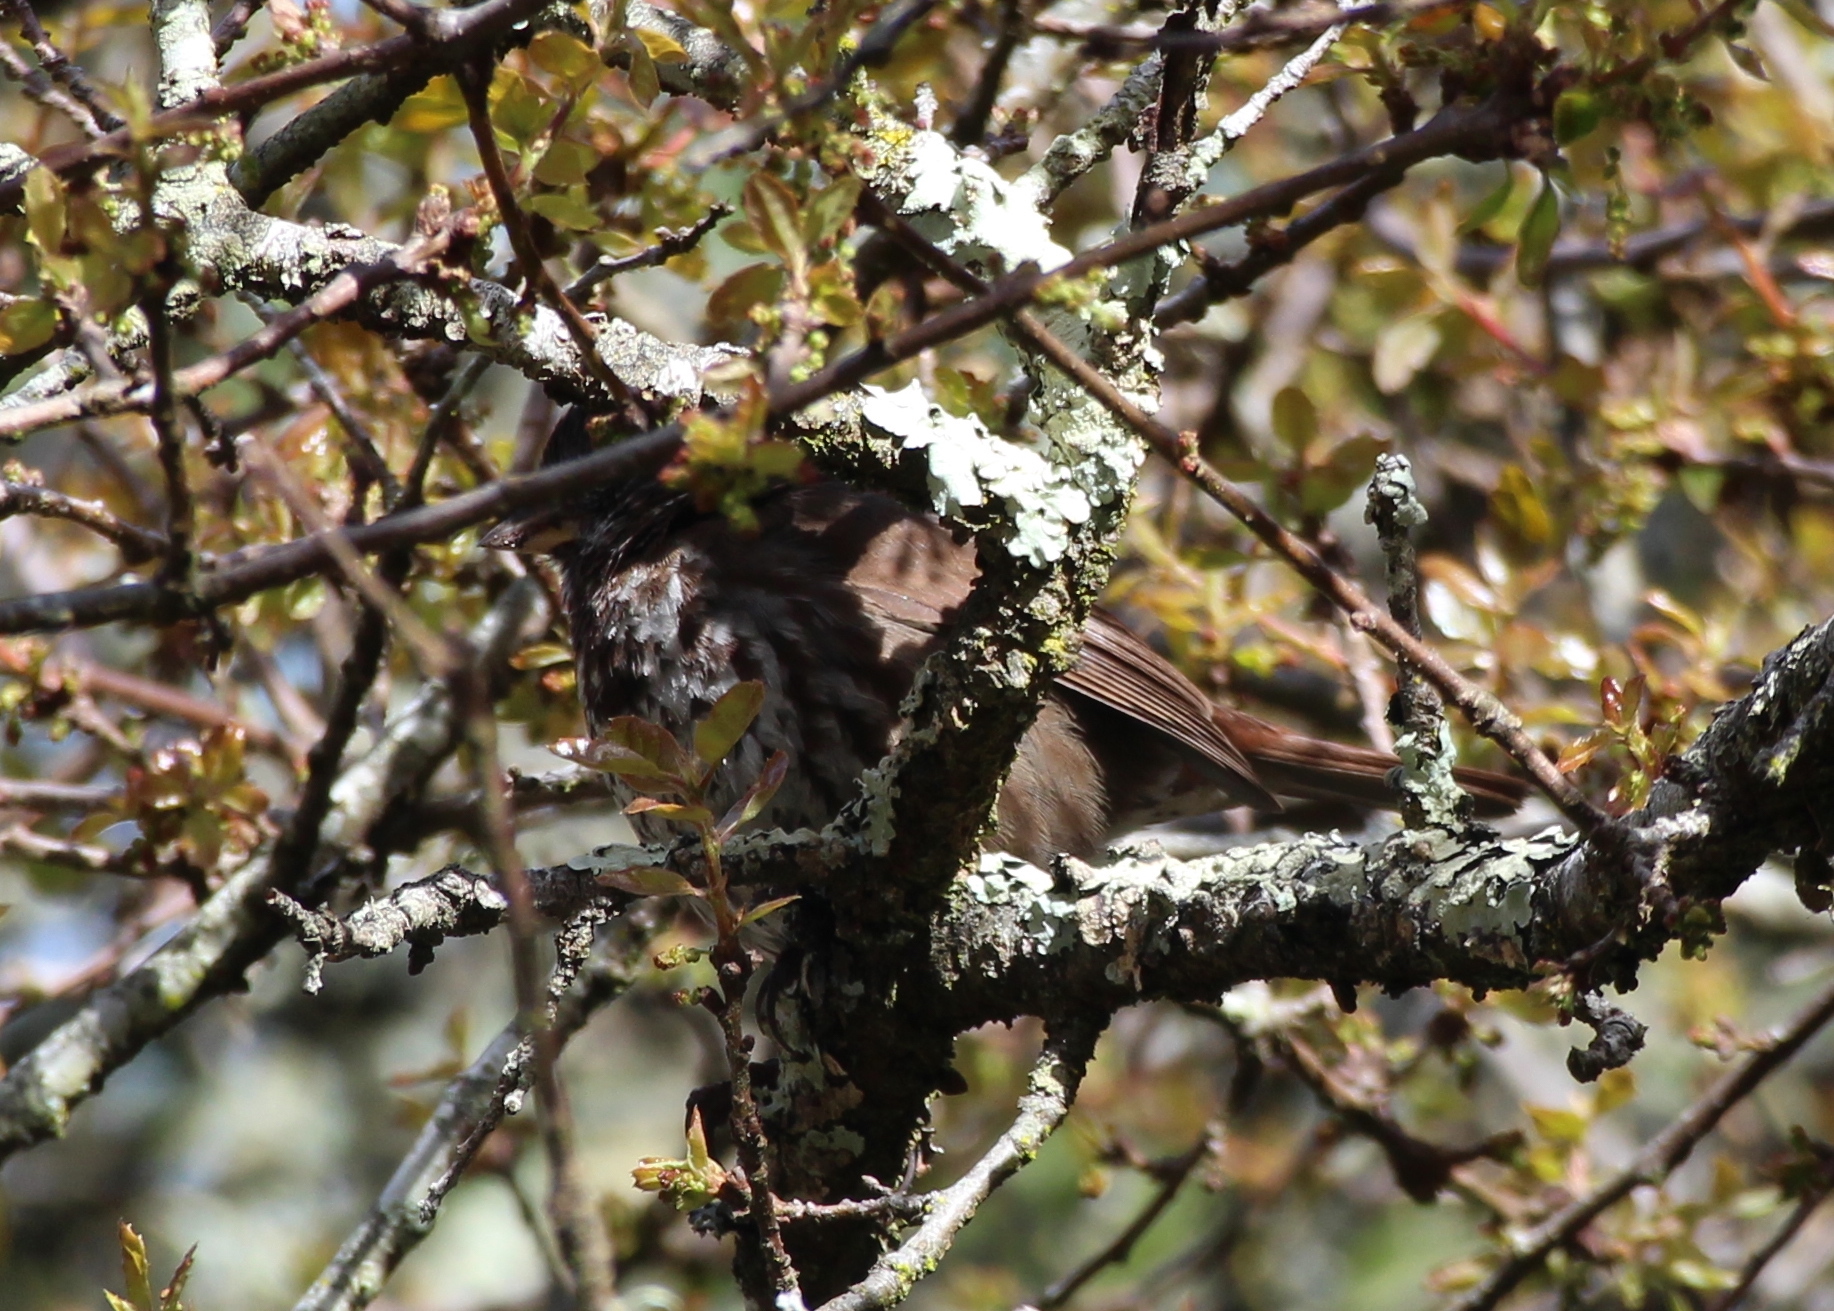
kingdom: Animalia
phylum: Chordata
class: Aves
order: Passeriformes
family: Passerellidae
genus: Passerella
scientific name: Passerella iliaca
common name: Fox sparrow
